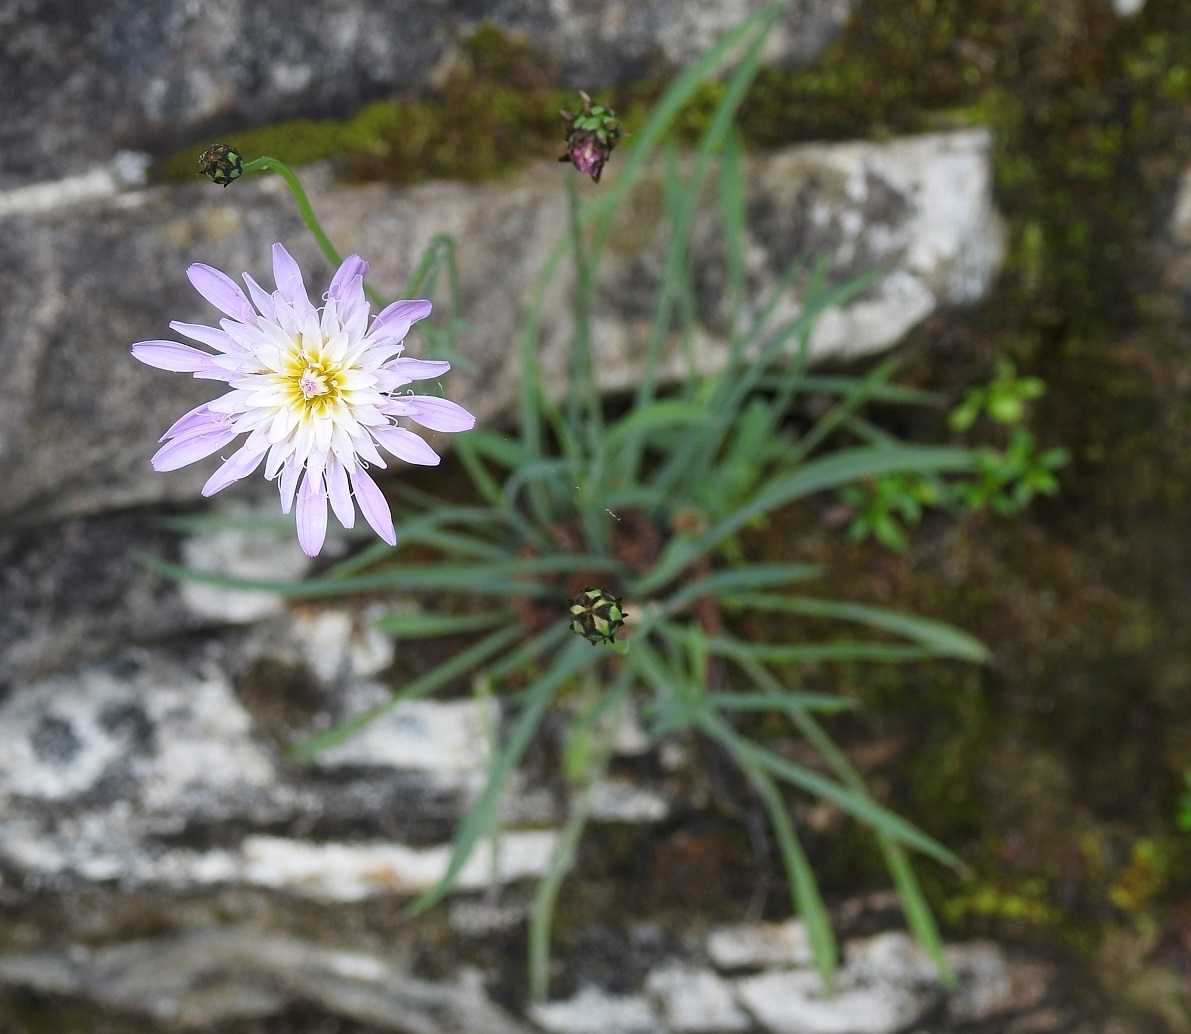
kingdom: Plantae
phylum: Tracheophyta
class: Magnoliopsida
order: Asterales
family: Asteraceae
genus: Pinaropappus
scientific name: Pinaropappus spathulatus
